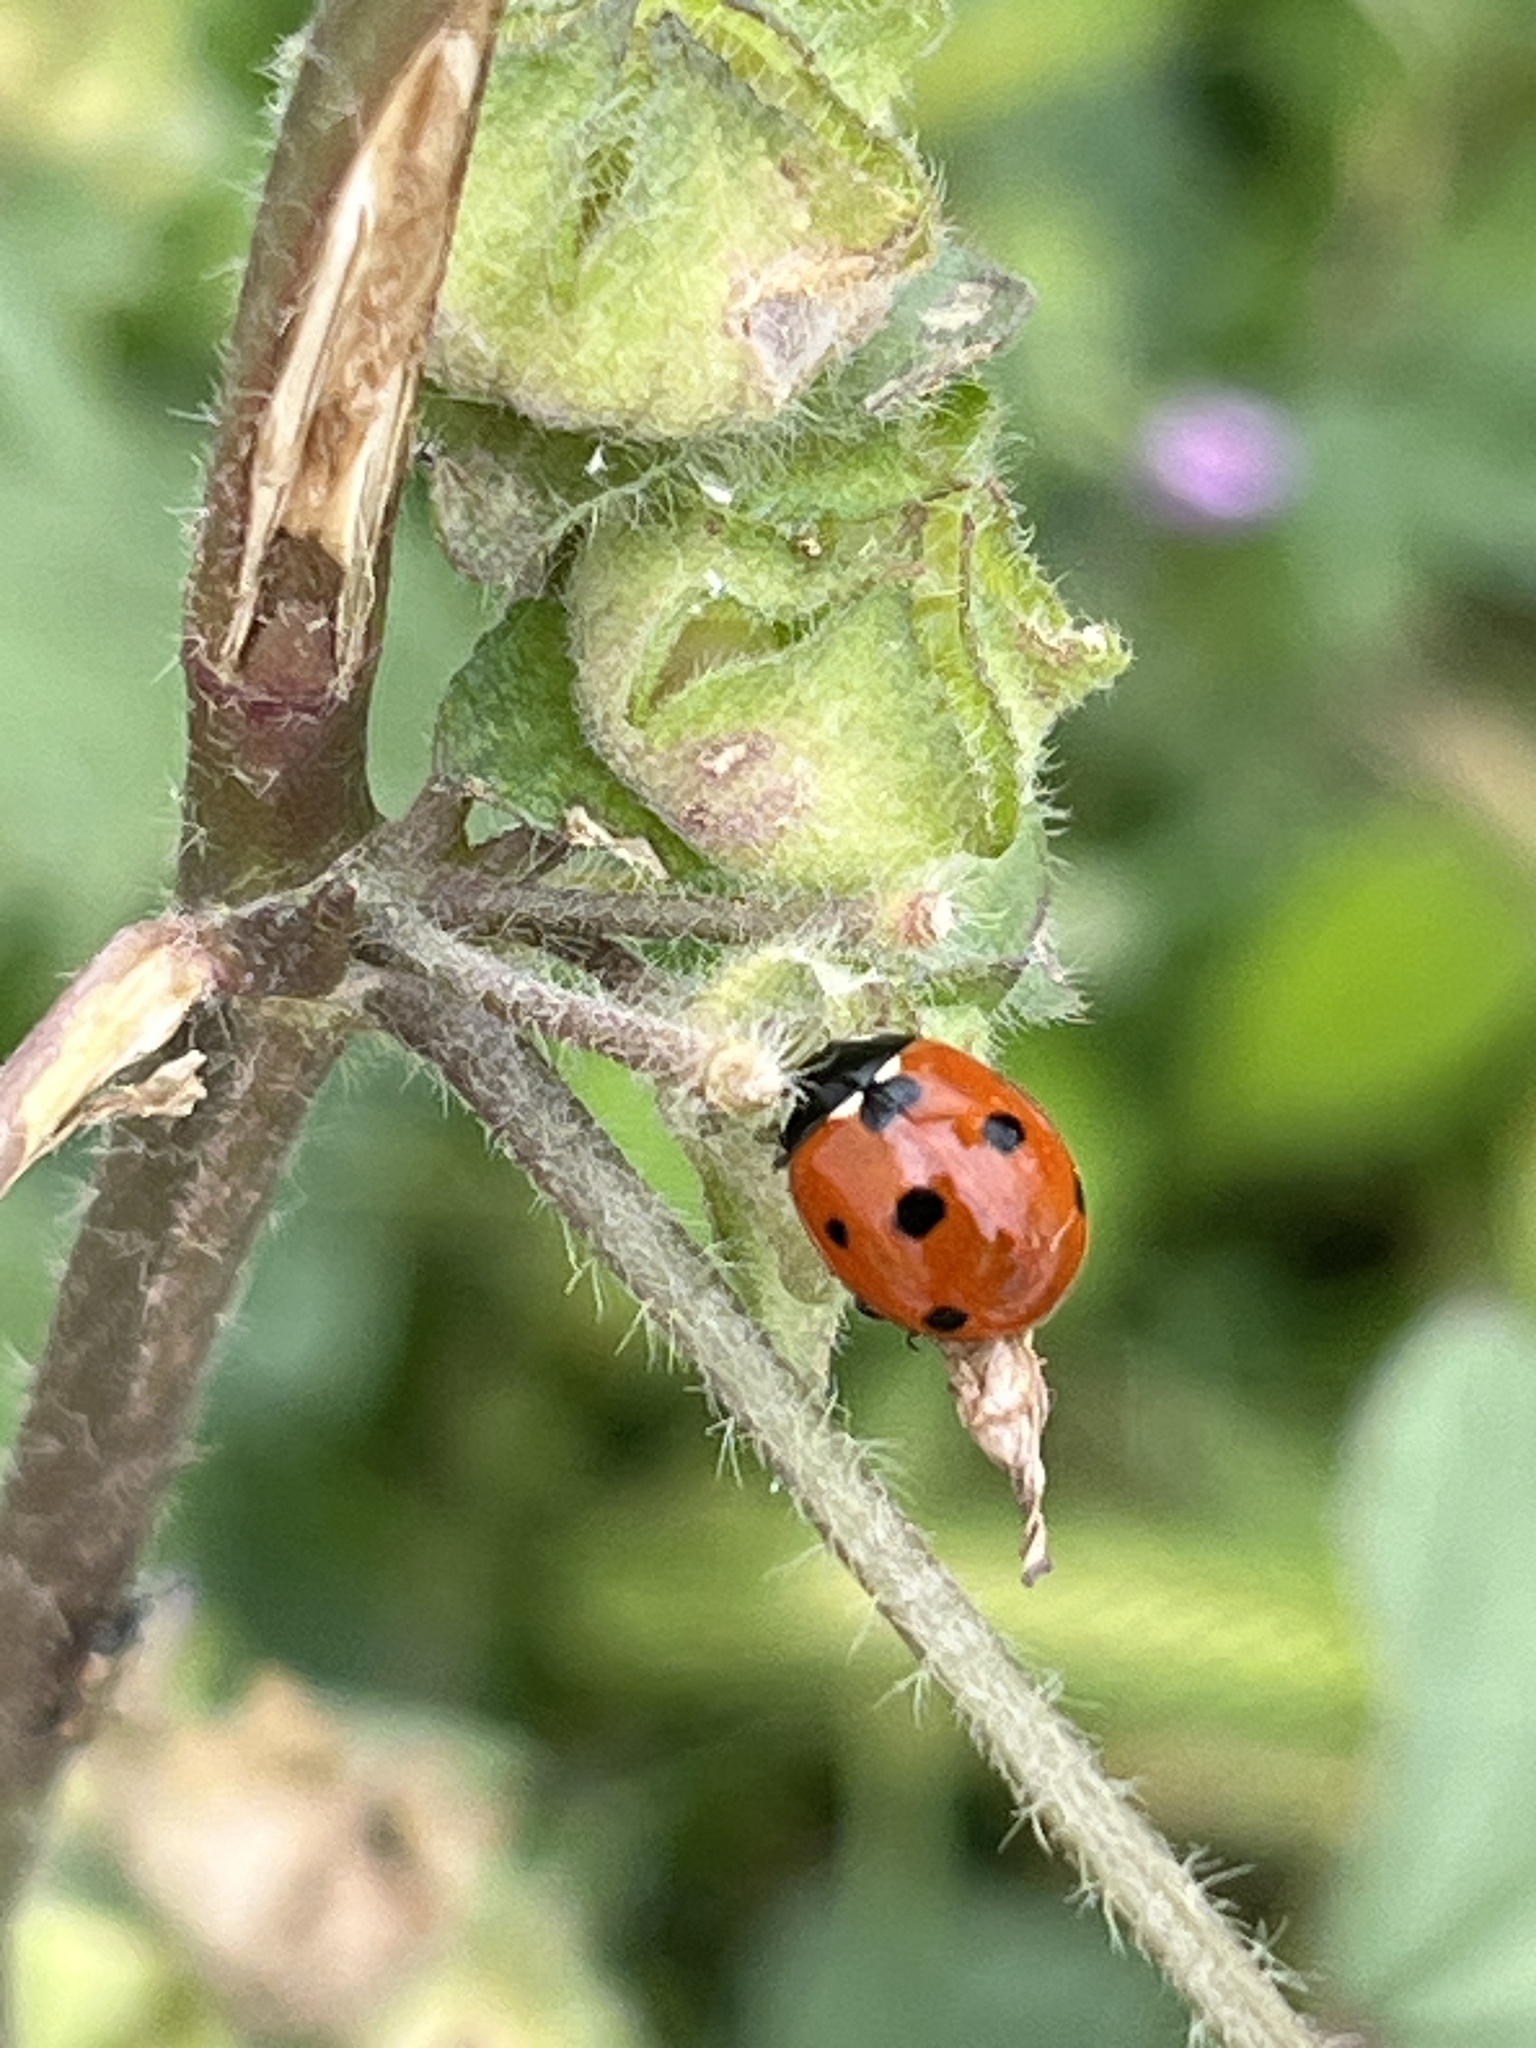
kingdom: Animalia
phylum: Arthropoda
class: Insecta
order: Coleoptera
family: Coccinellidae
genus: Coccinella
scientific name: Coccinella septempunctata
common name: Sevenspotted lady beetle
